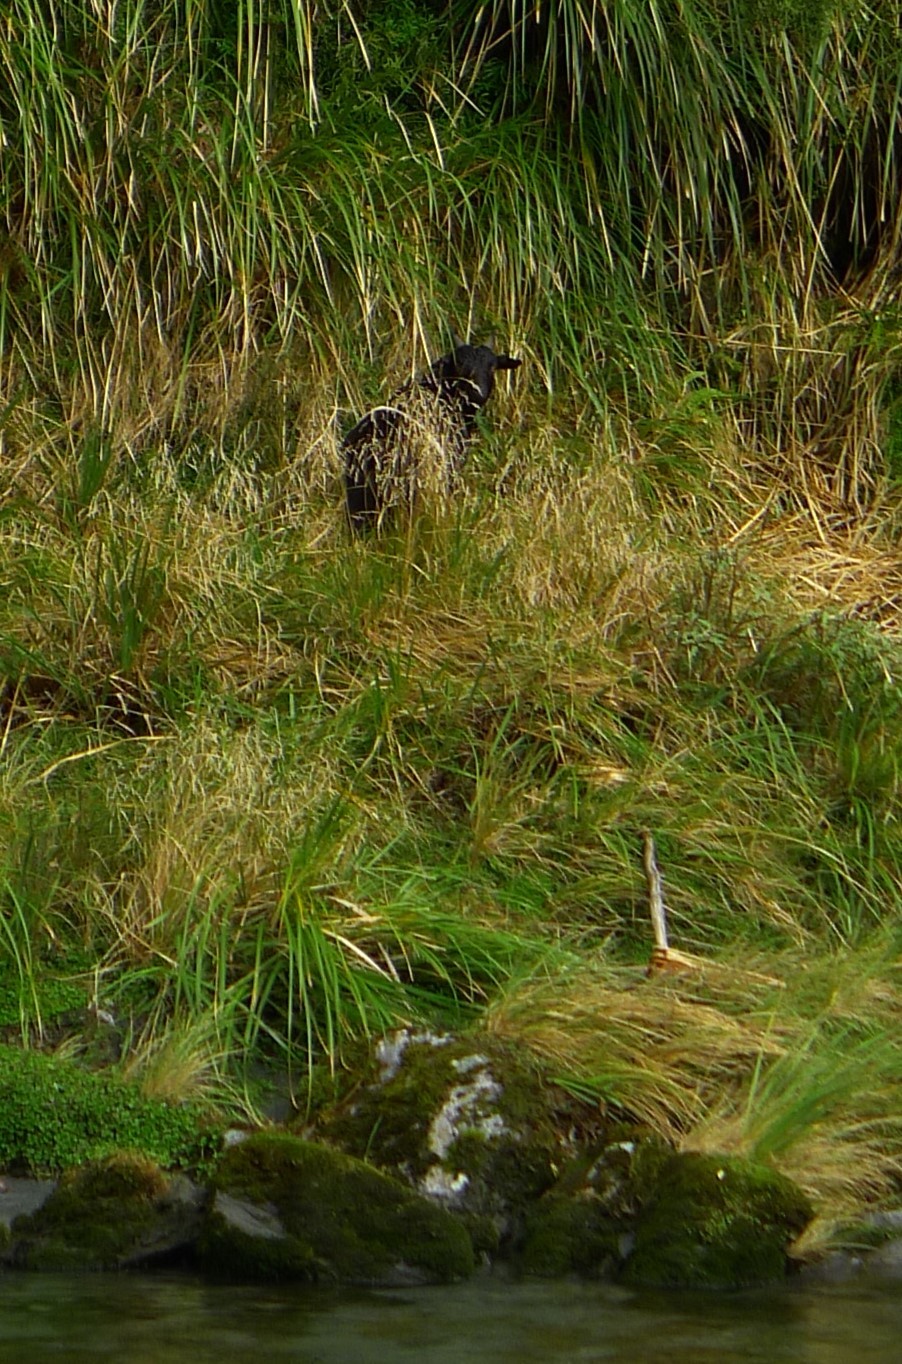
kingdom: Animalia
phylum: Chordata
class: Mammalia
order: Artiodactyla
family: Bovidae
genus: Capra
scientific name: Capra hircus
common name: Domestic goat
